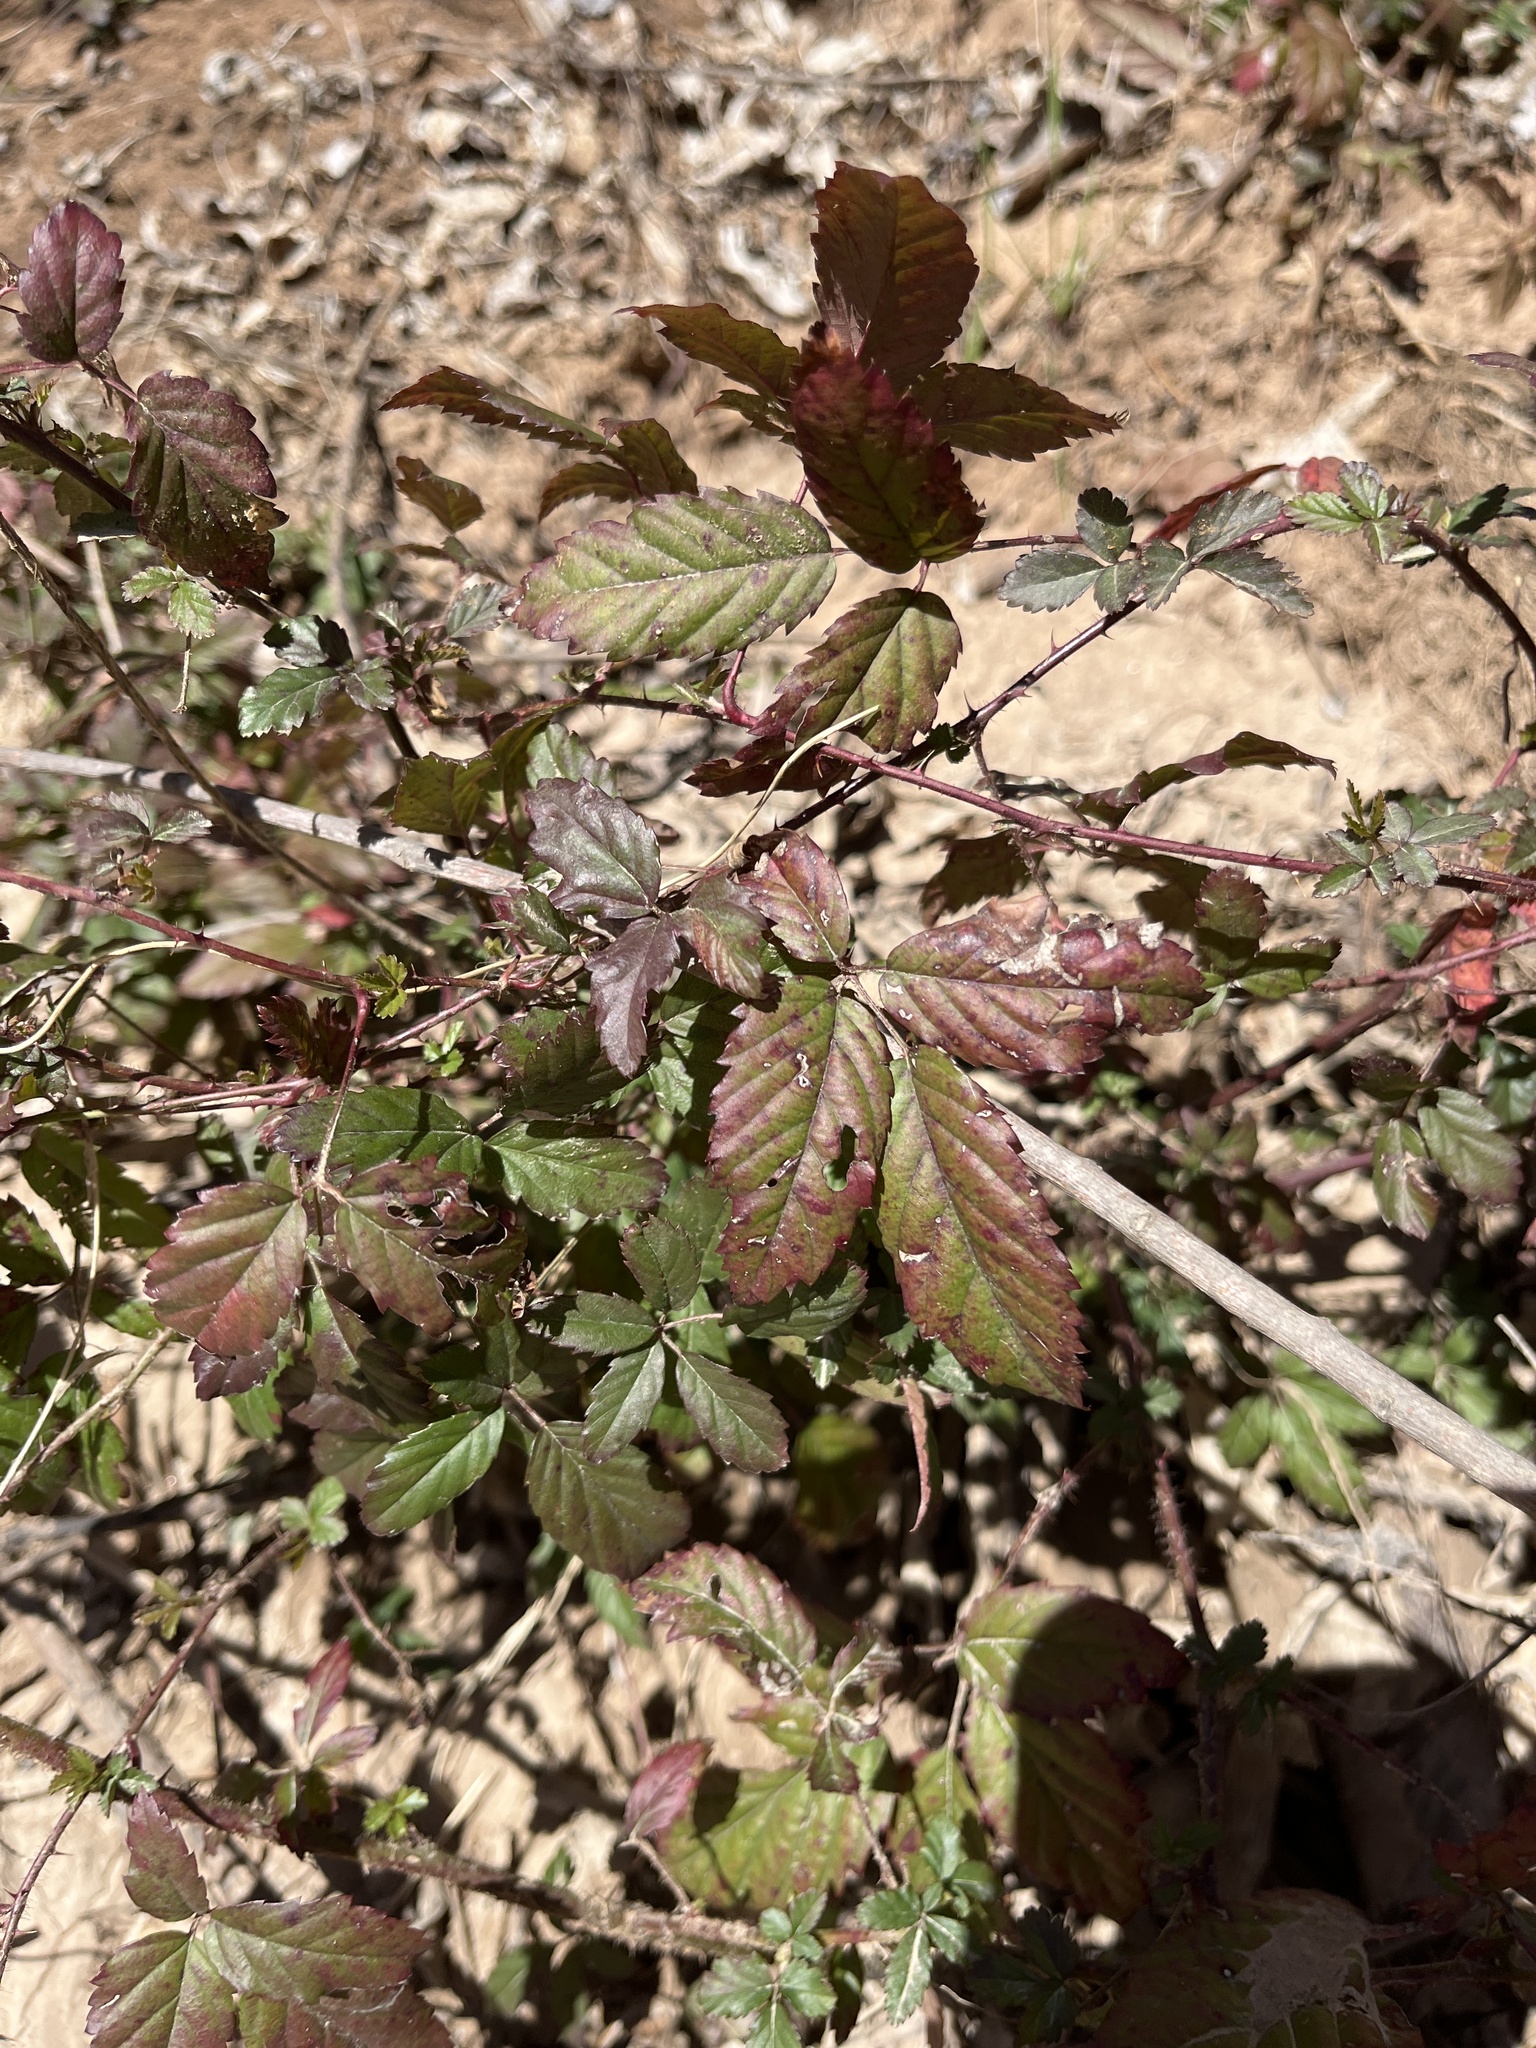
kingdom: Plantae
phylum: Tracheophyta
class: Magnoliopsida
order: Rosales
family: Rosaceae
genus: Rubus
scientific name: Rubus trivialis
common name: Southern dewberry
